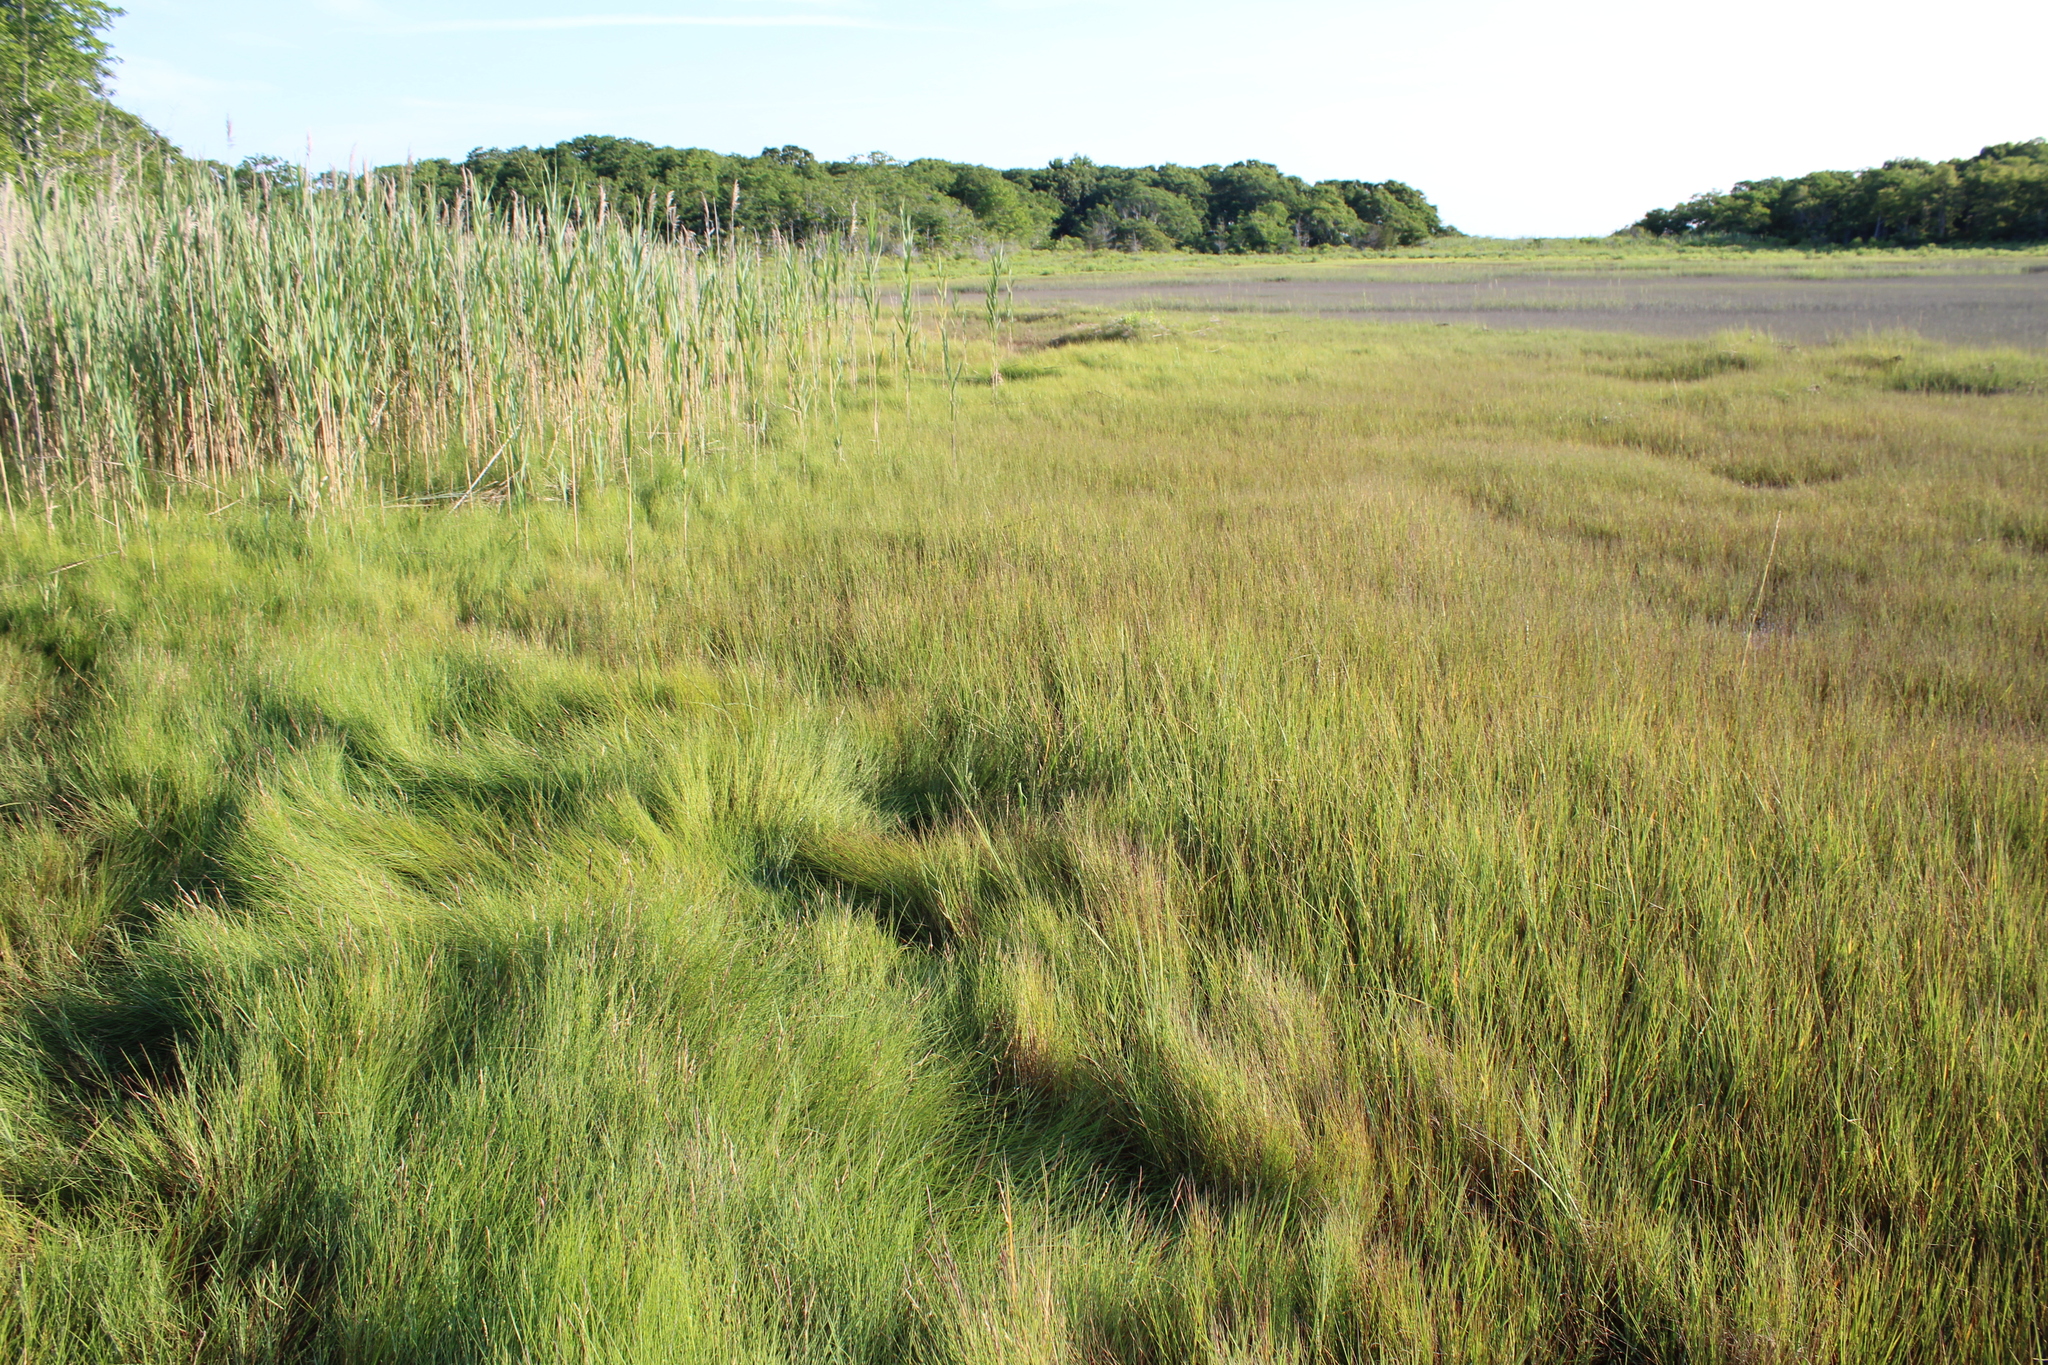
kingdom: Plantae
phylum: Tracheophyta
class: Liliopsida
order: Poales
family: Poaceae
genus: Sporobolus
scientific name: Sporobolus pumilus
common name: Highwater grass
